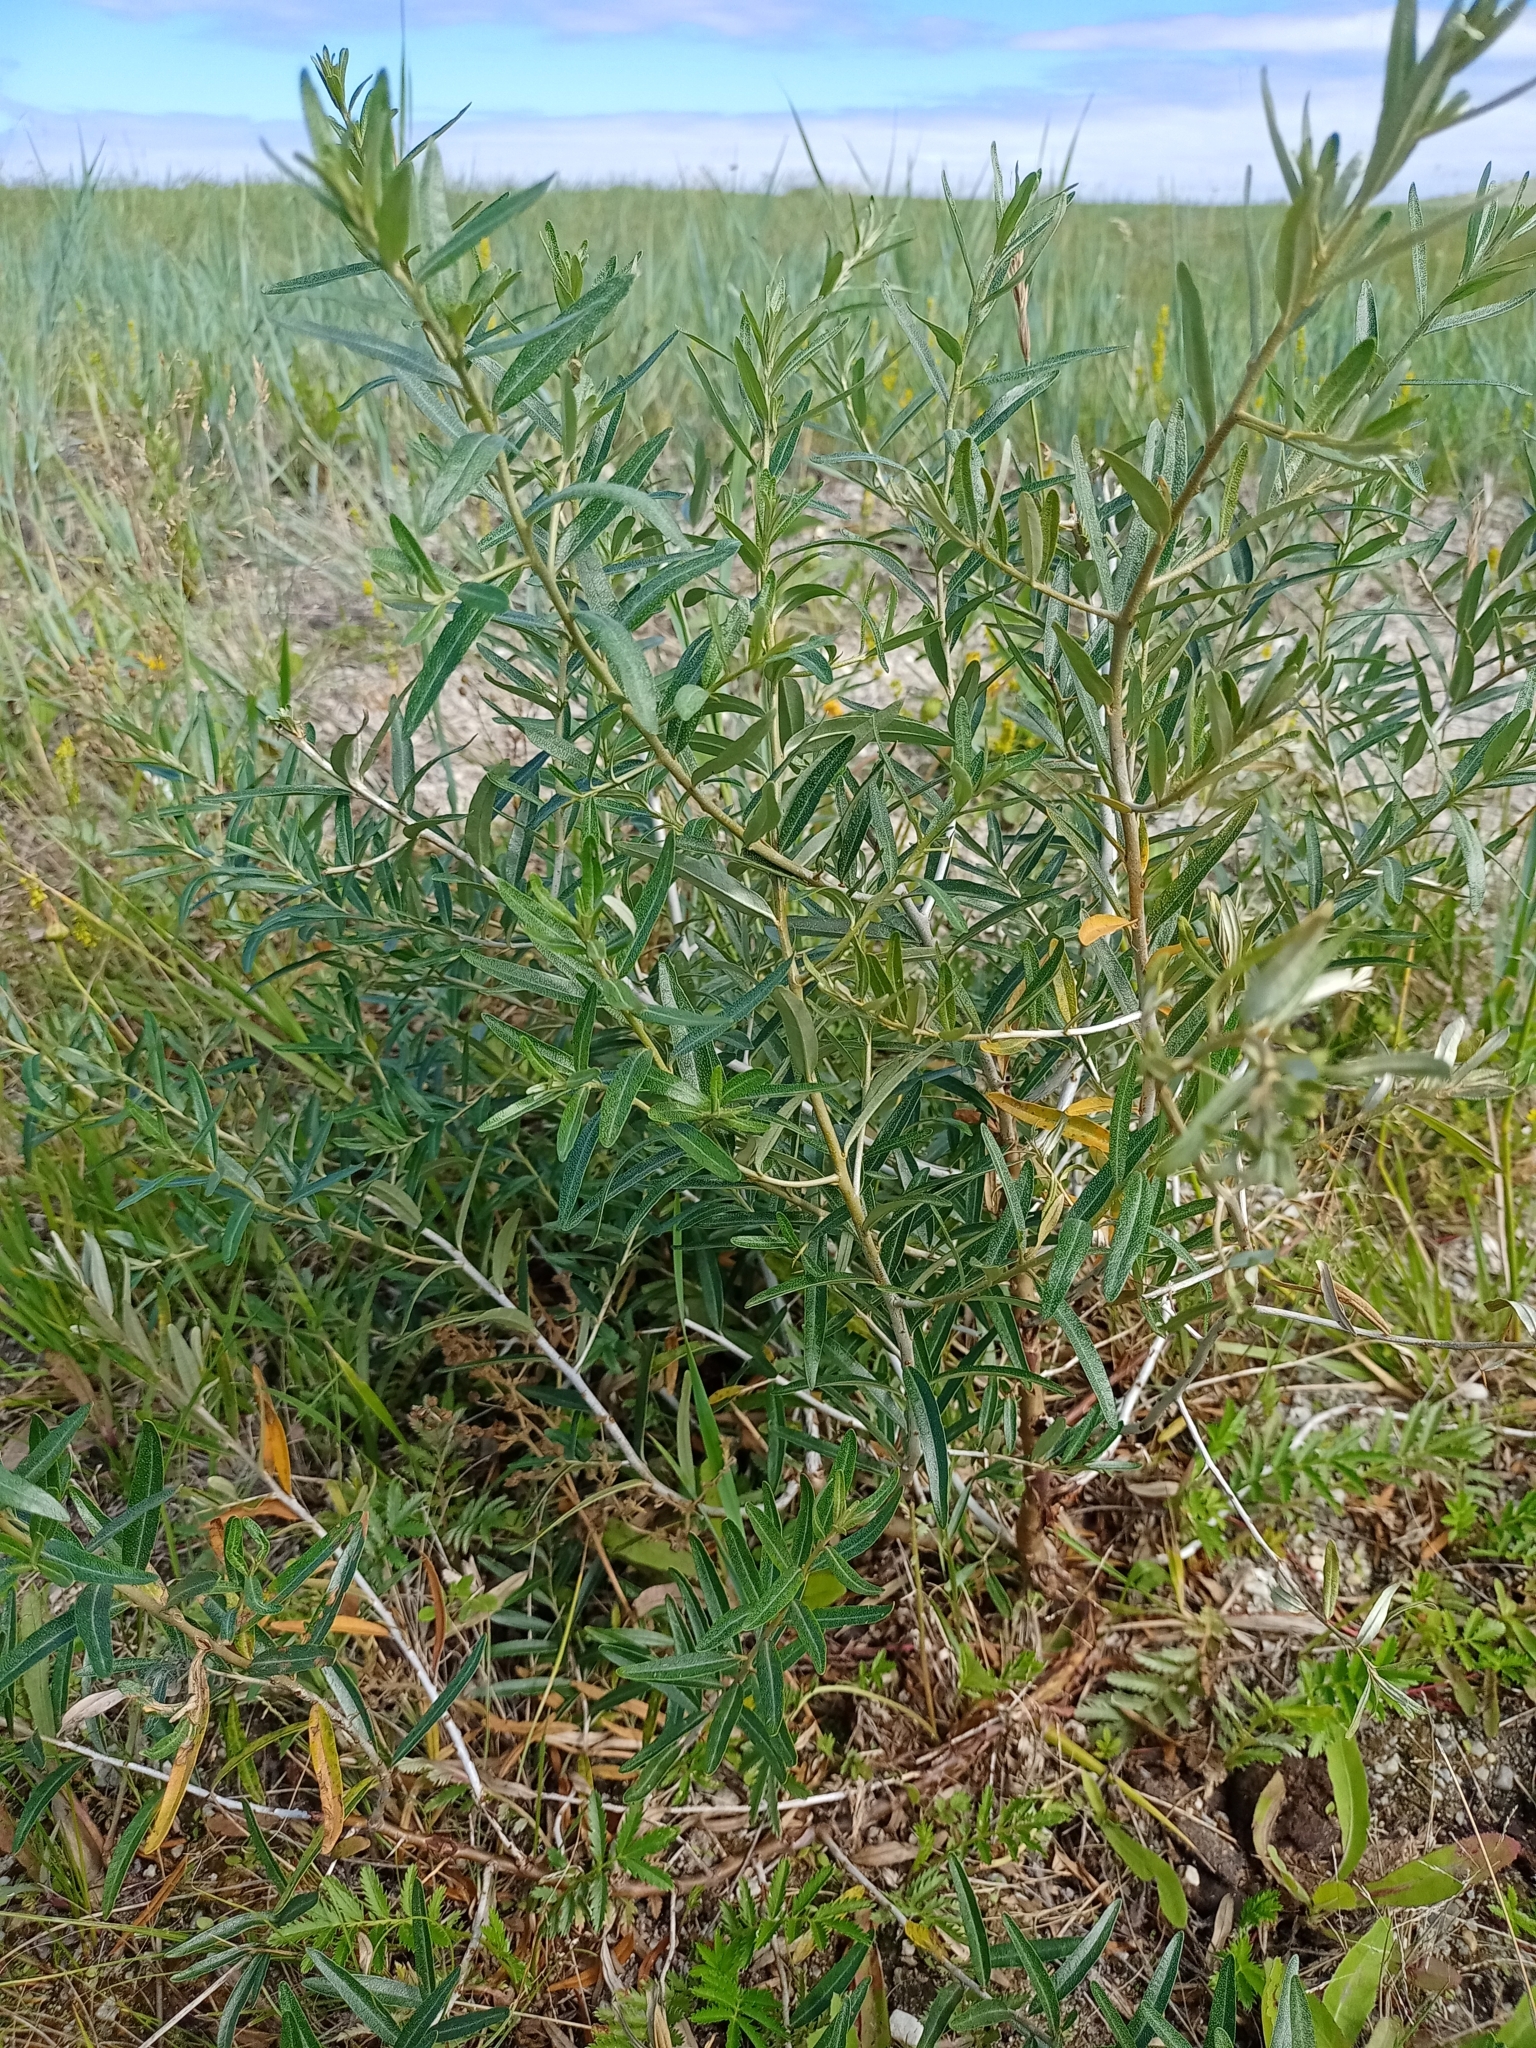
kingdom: Plantae
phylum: Tracheophyta
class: Magnoliopsida
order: Rosales
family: Elaeagnaceae
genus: Hippophae
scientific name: Hippophae rhamnoides
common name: Sea-buckthorn
